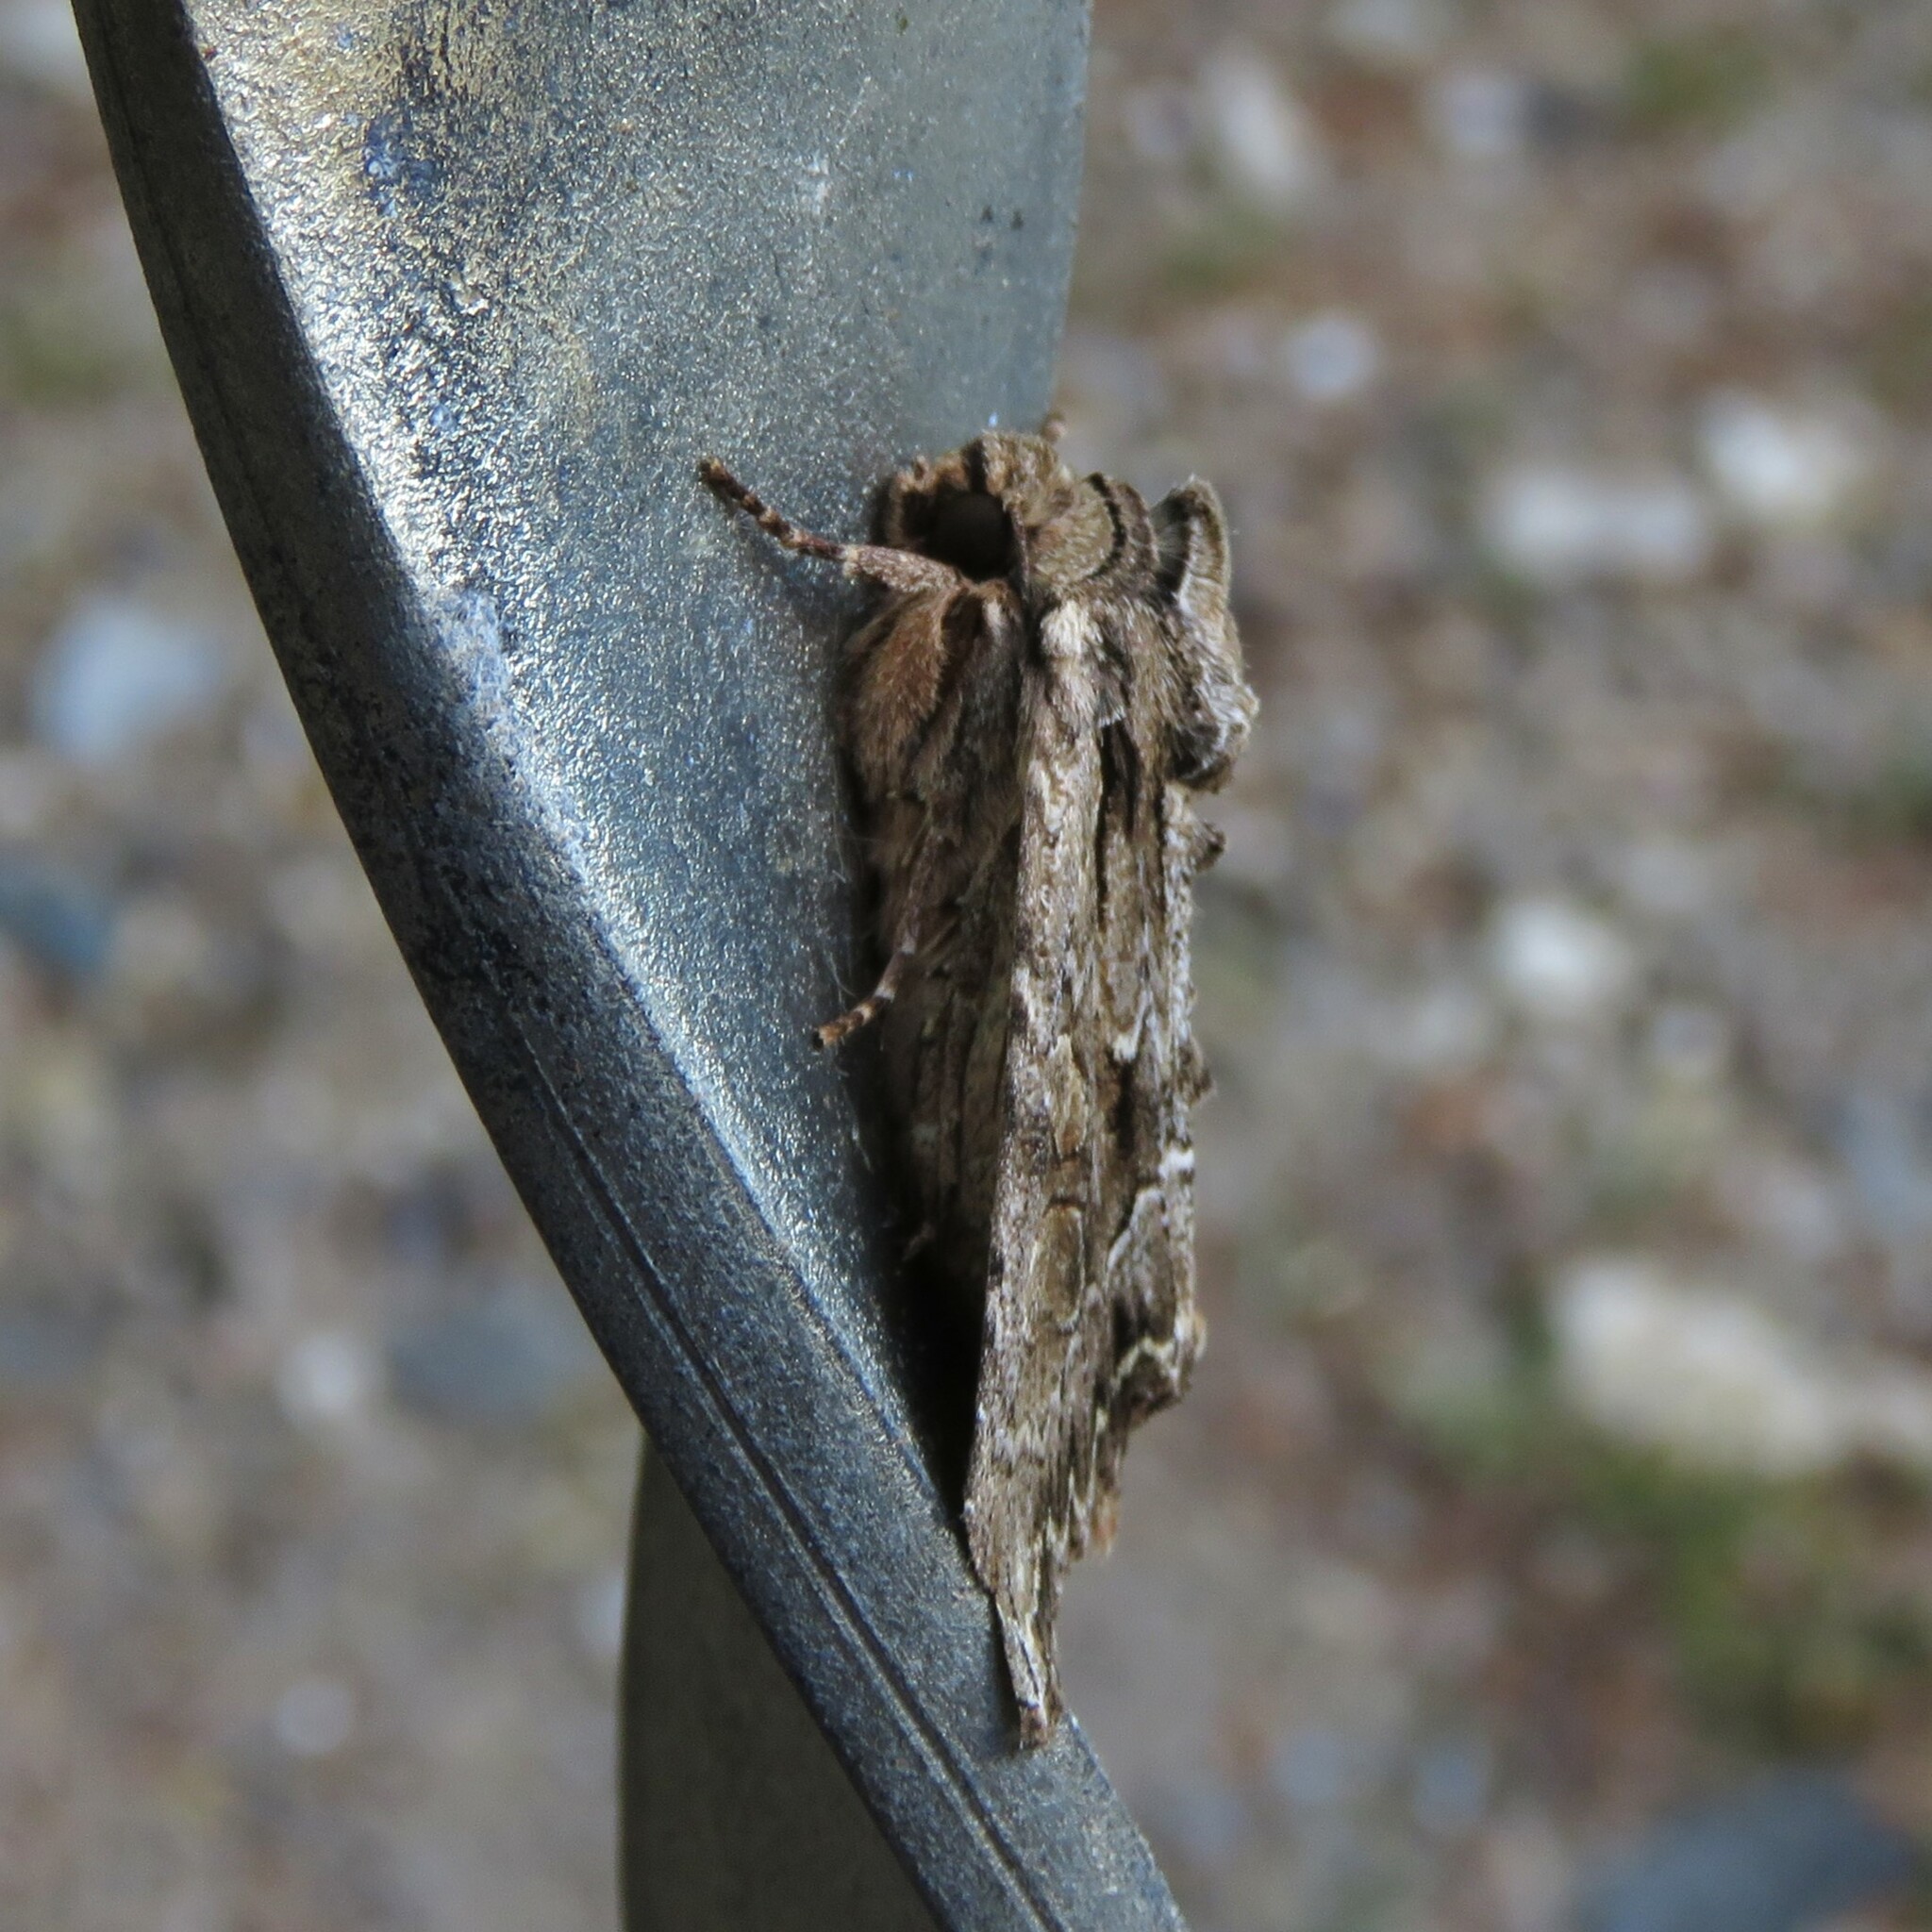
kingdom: Animalia
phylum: Arthropoda
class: Insecta
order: Lepidoptera
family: Noctuidae
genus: Apamea
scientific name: Apamea monoglypha
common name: Dark arches
